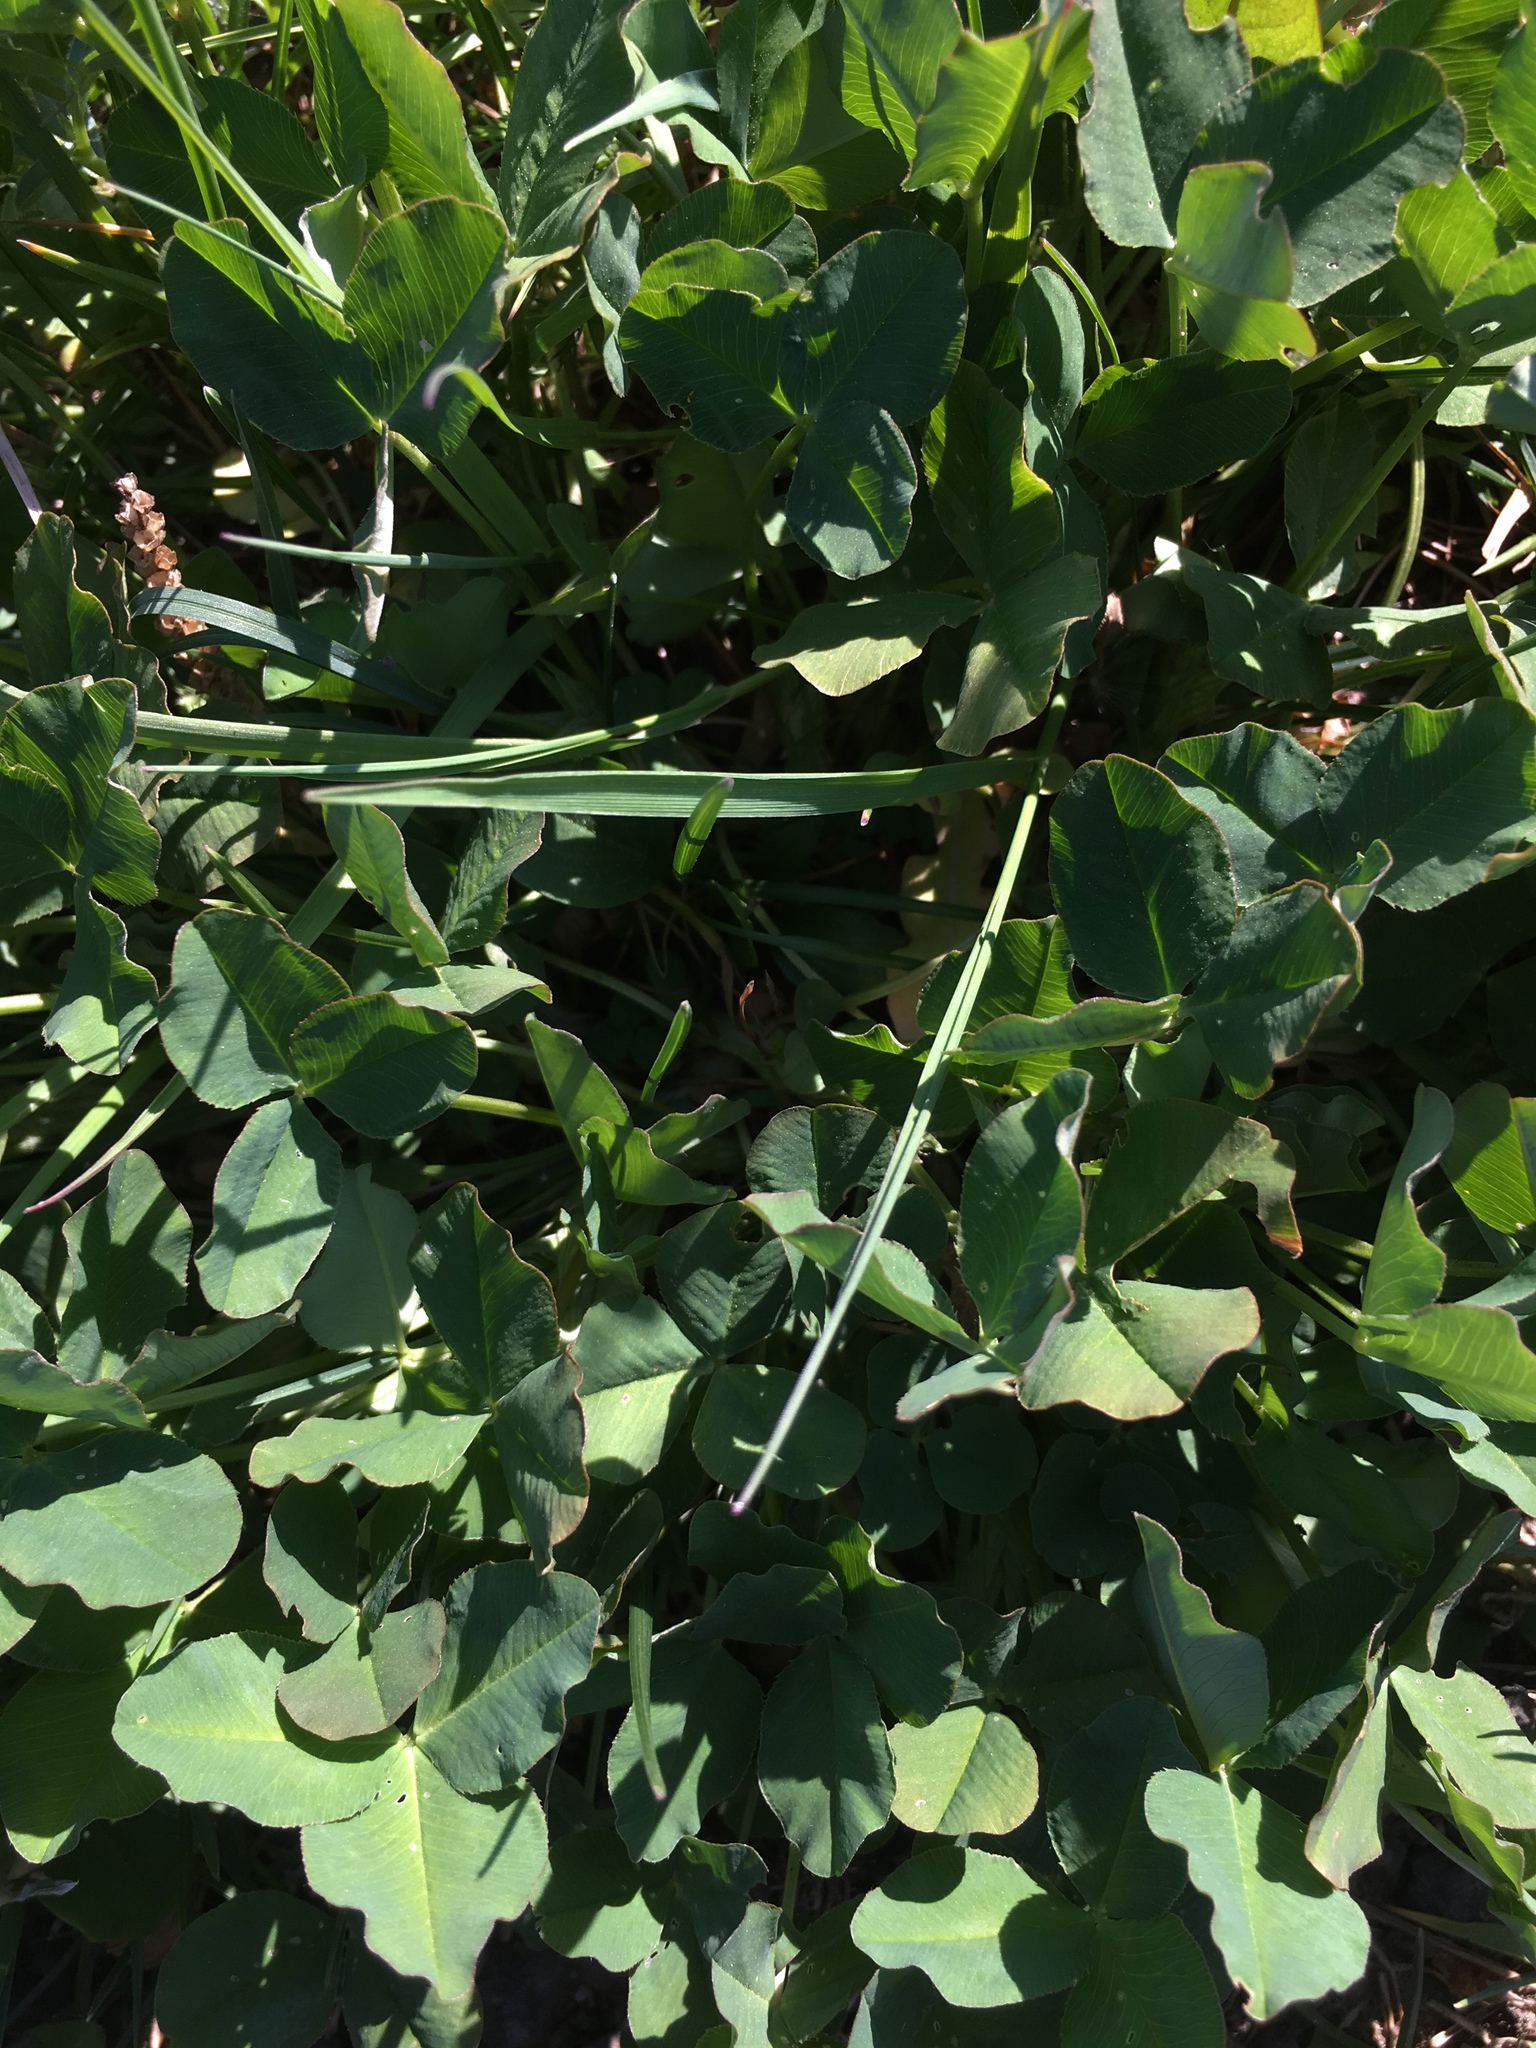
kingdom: Plantae
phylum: Tracheophyta
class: Magnoliopsida
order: Fabales
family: Fabaceae
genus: Trifolium
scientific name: Trifolium repens
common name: White clover
